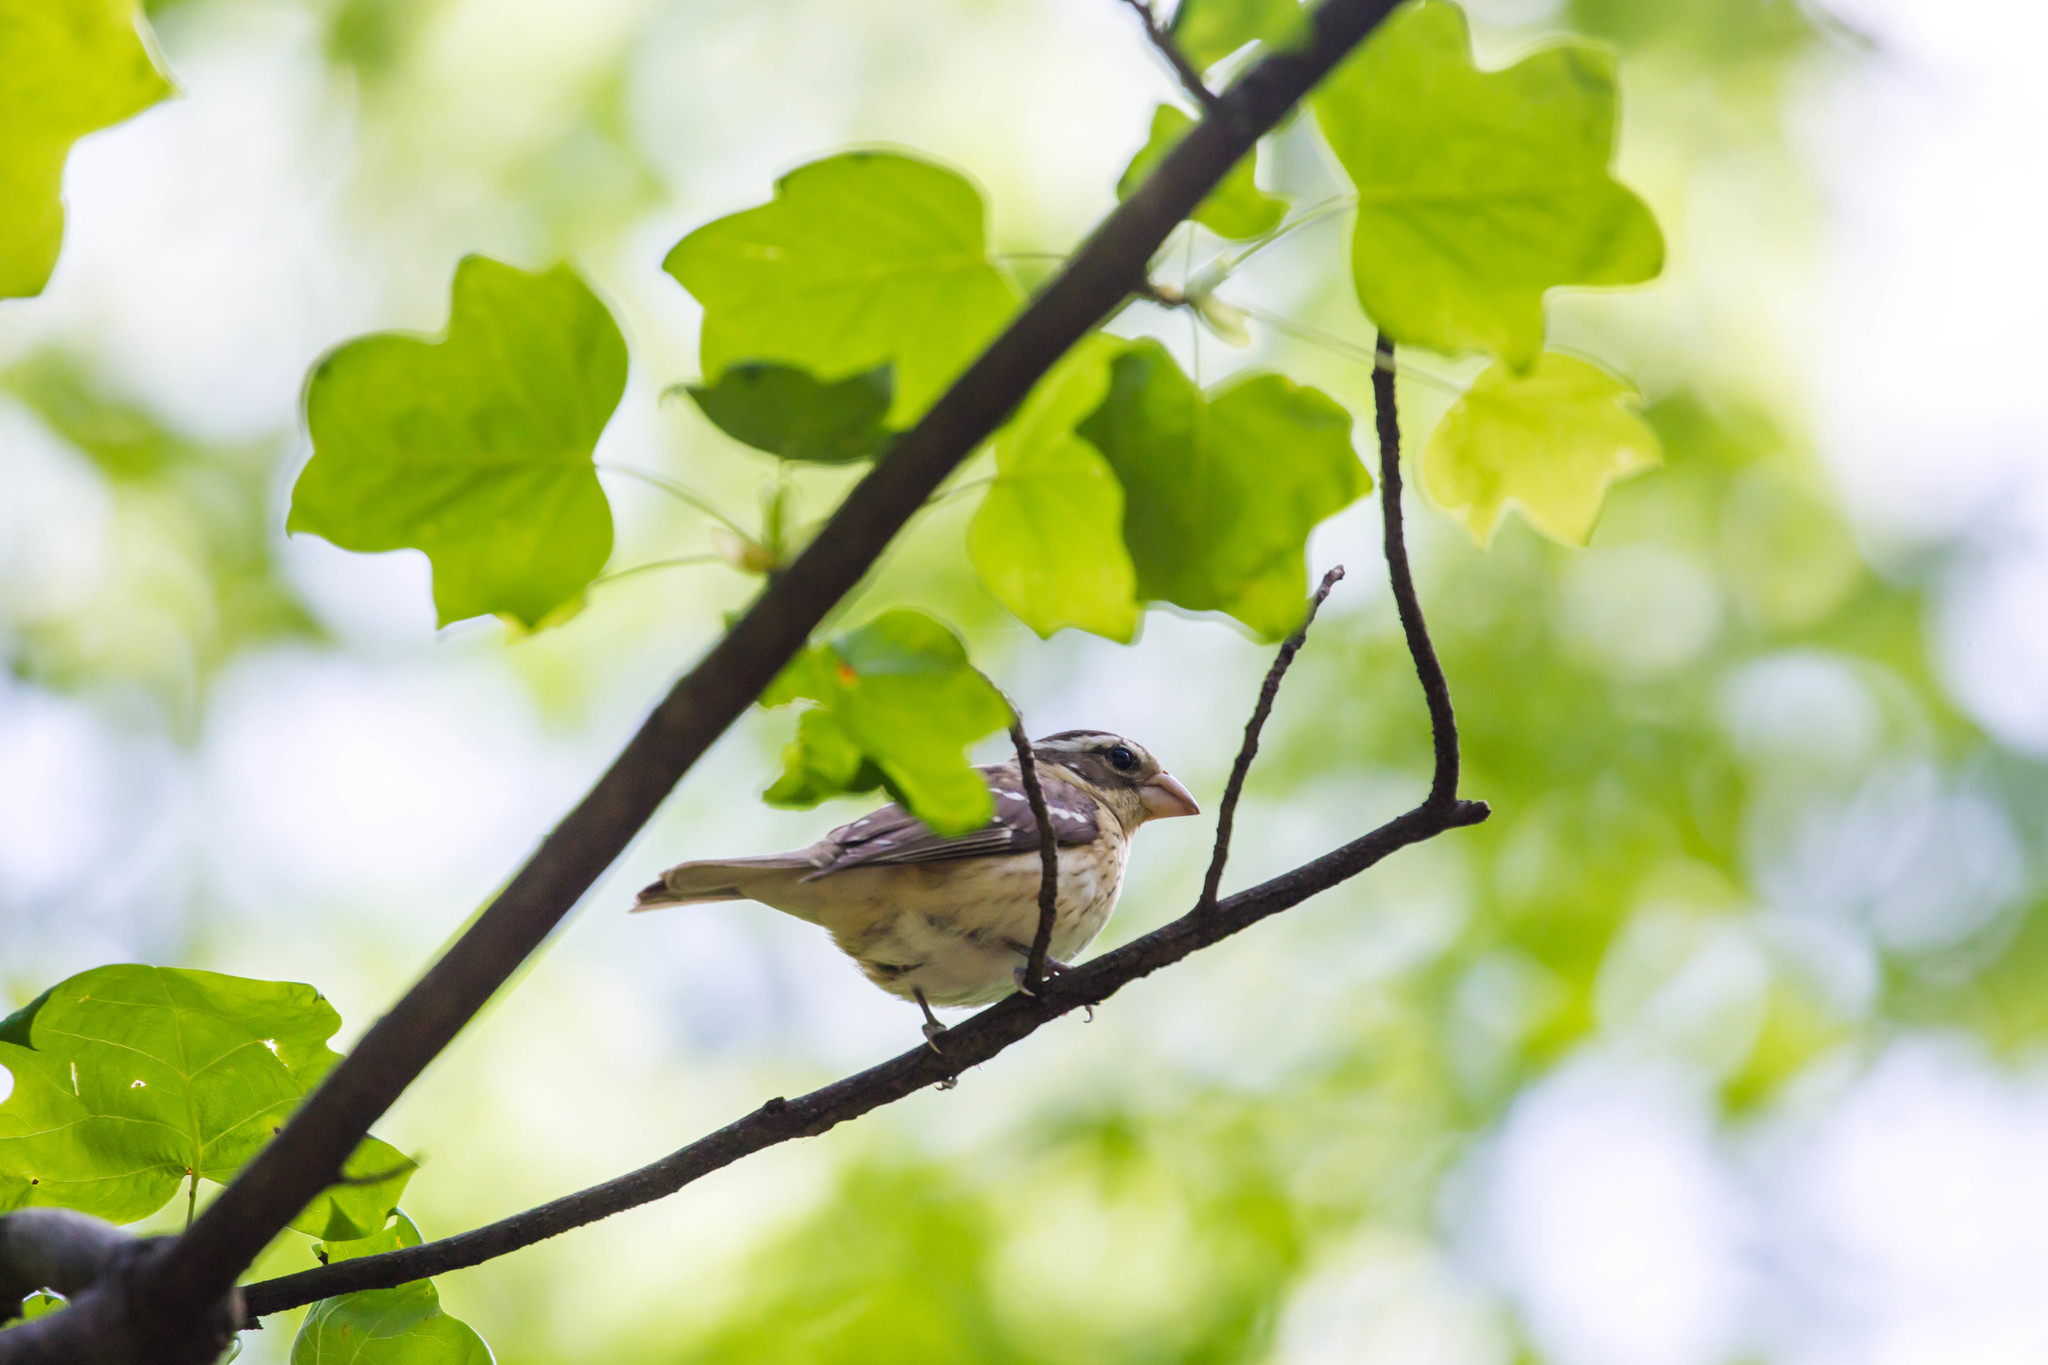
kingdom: Animalia
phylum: Chordata
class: Aves
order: Passeriformes
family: Cardinalidae
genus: Pheucticus
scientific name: Pheucticus ludovicianus
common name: Rose-breasted grosbeak
